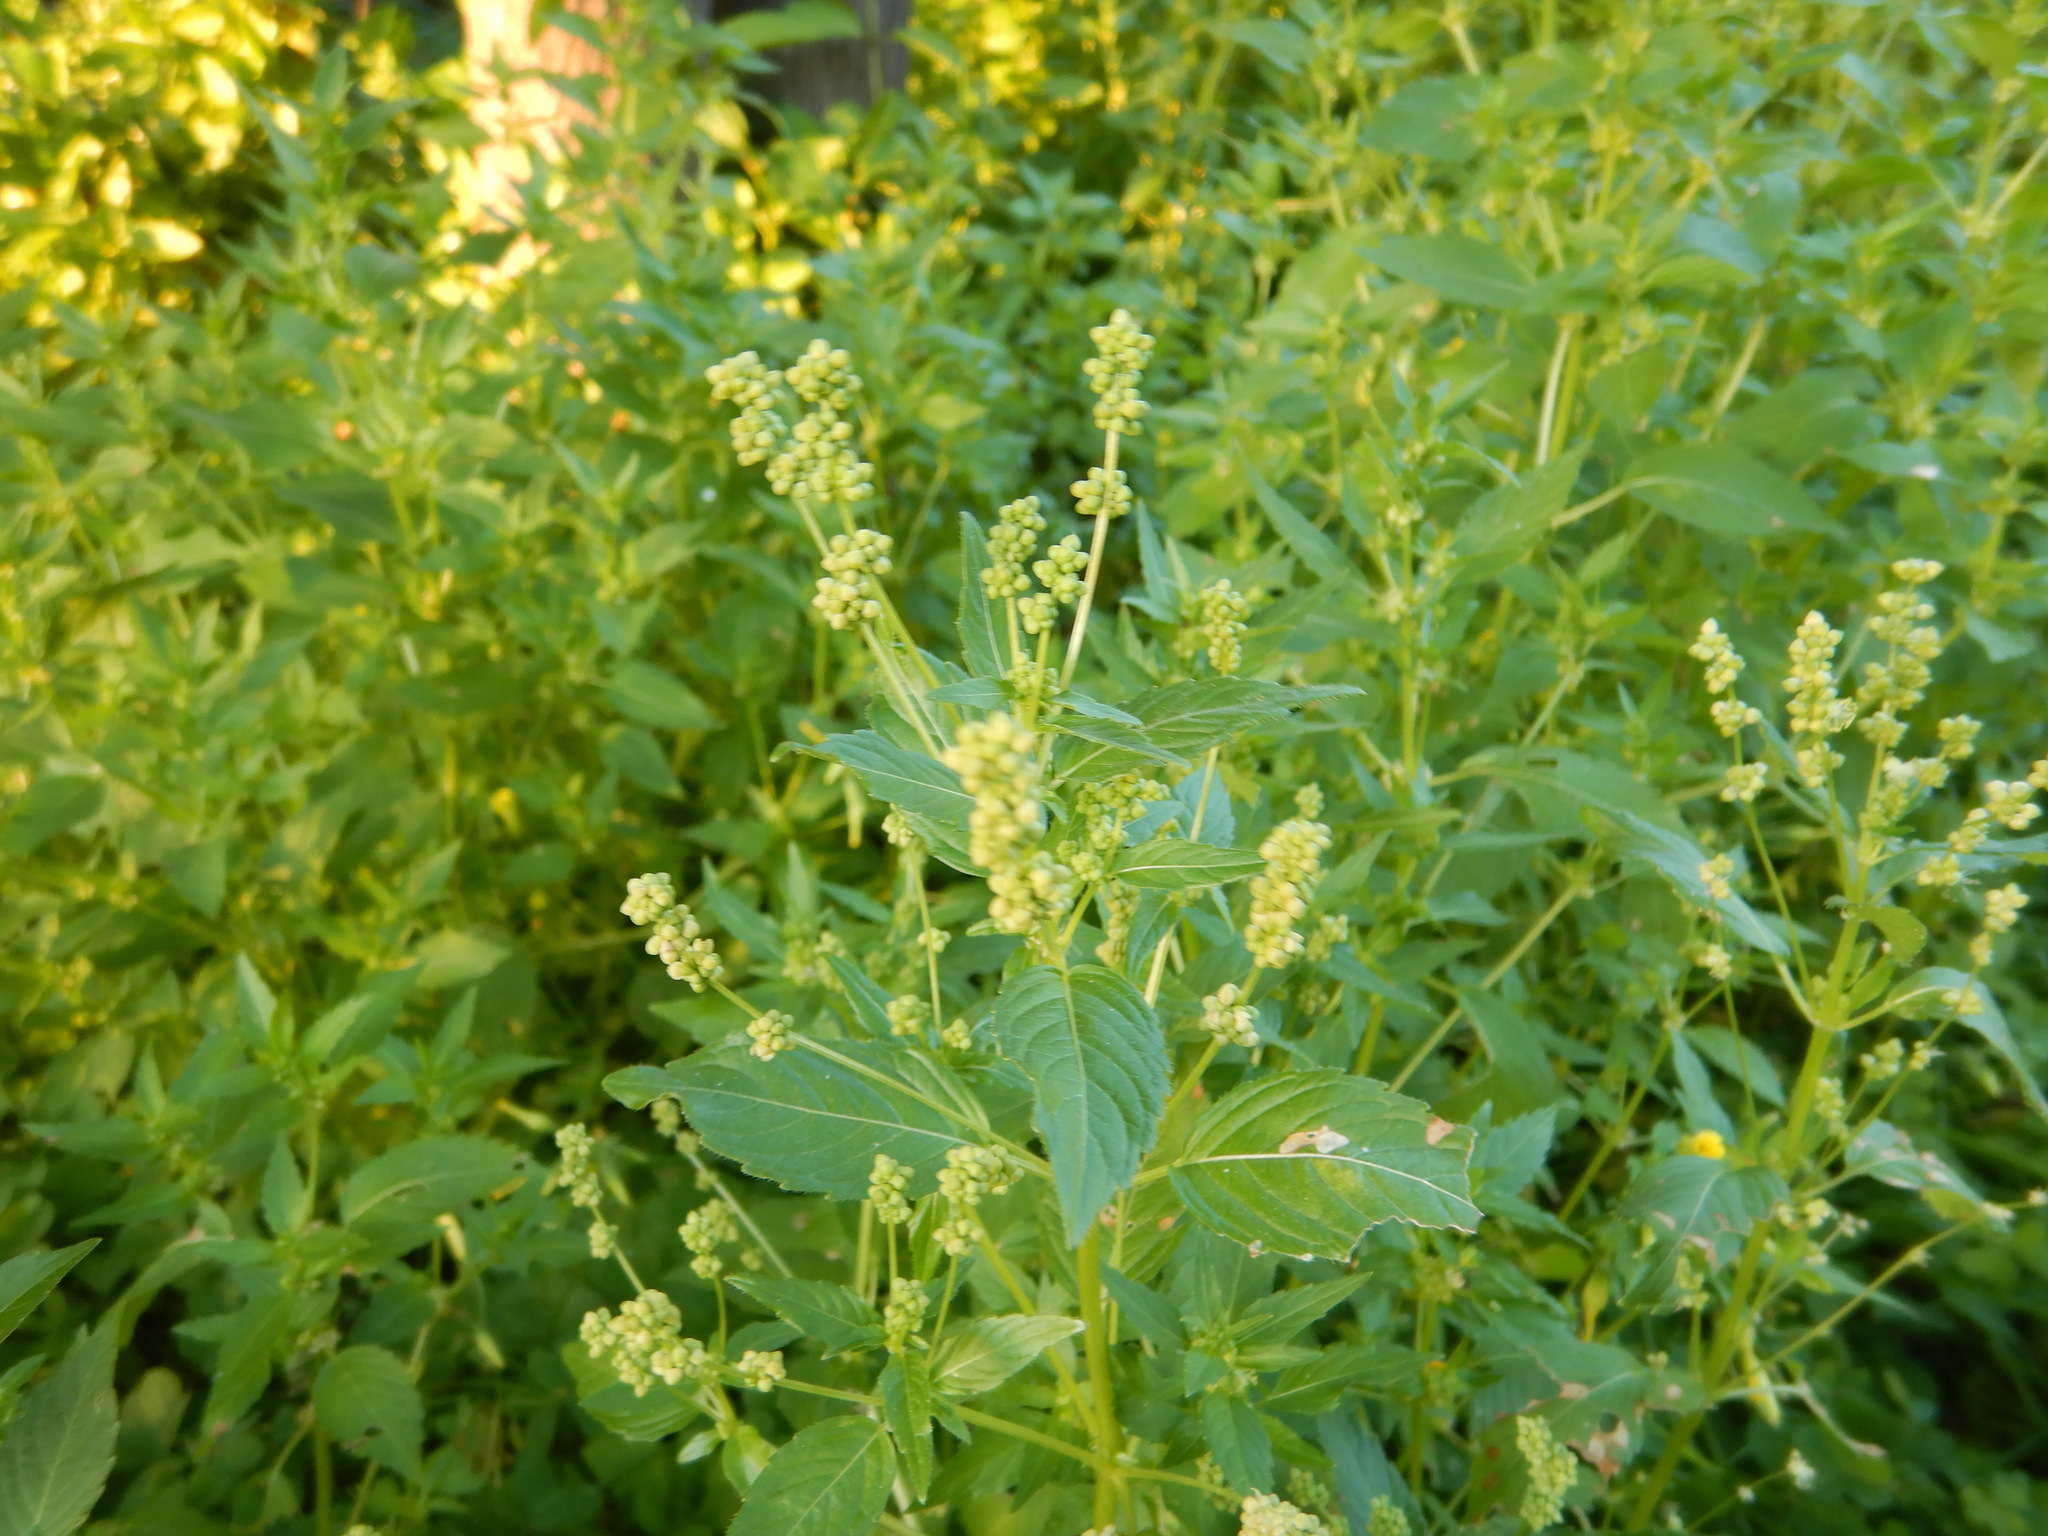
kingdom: Plantae
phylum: Tracheophyta
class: Magnoliopsida
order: Malpighiales
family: Euphorbiaceae
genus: Mercurialis
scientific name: Mercurialis annua
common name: Annual mercury
